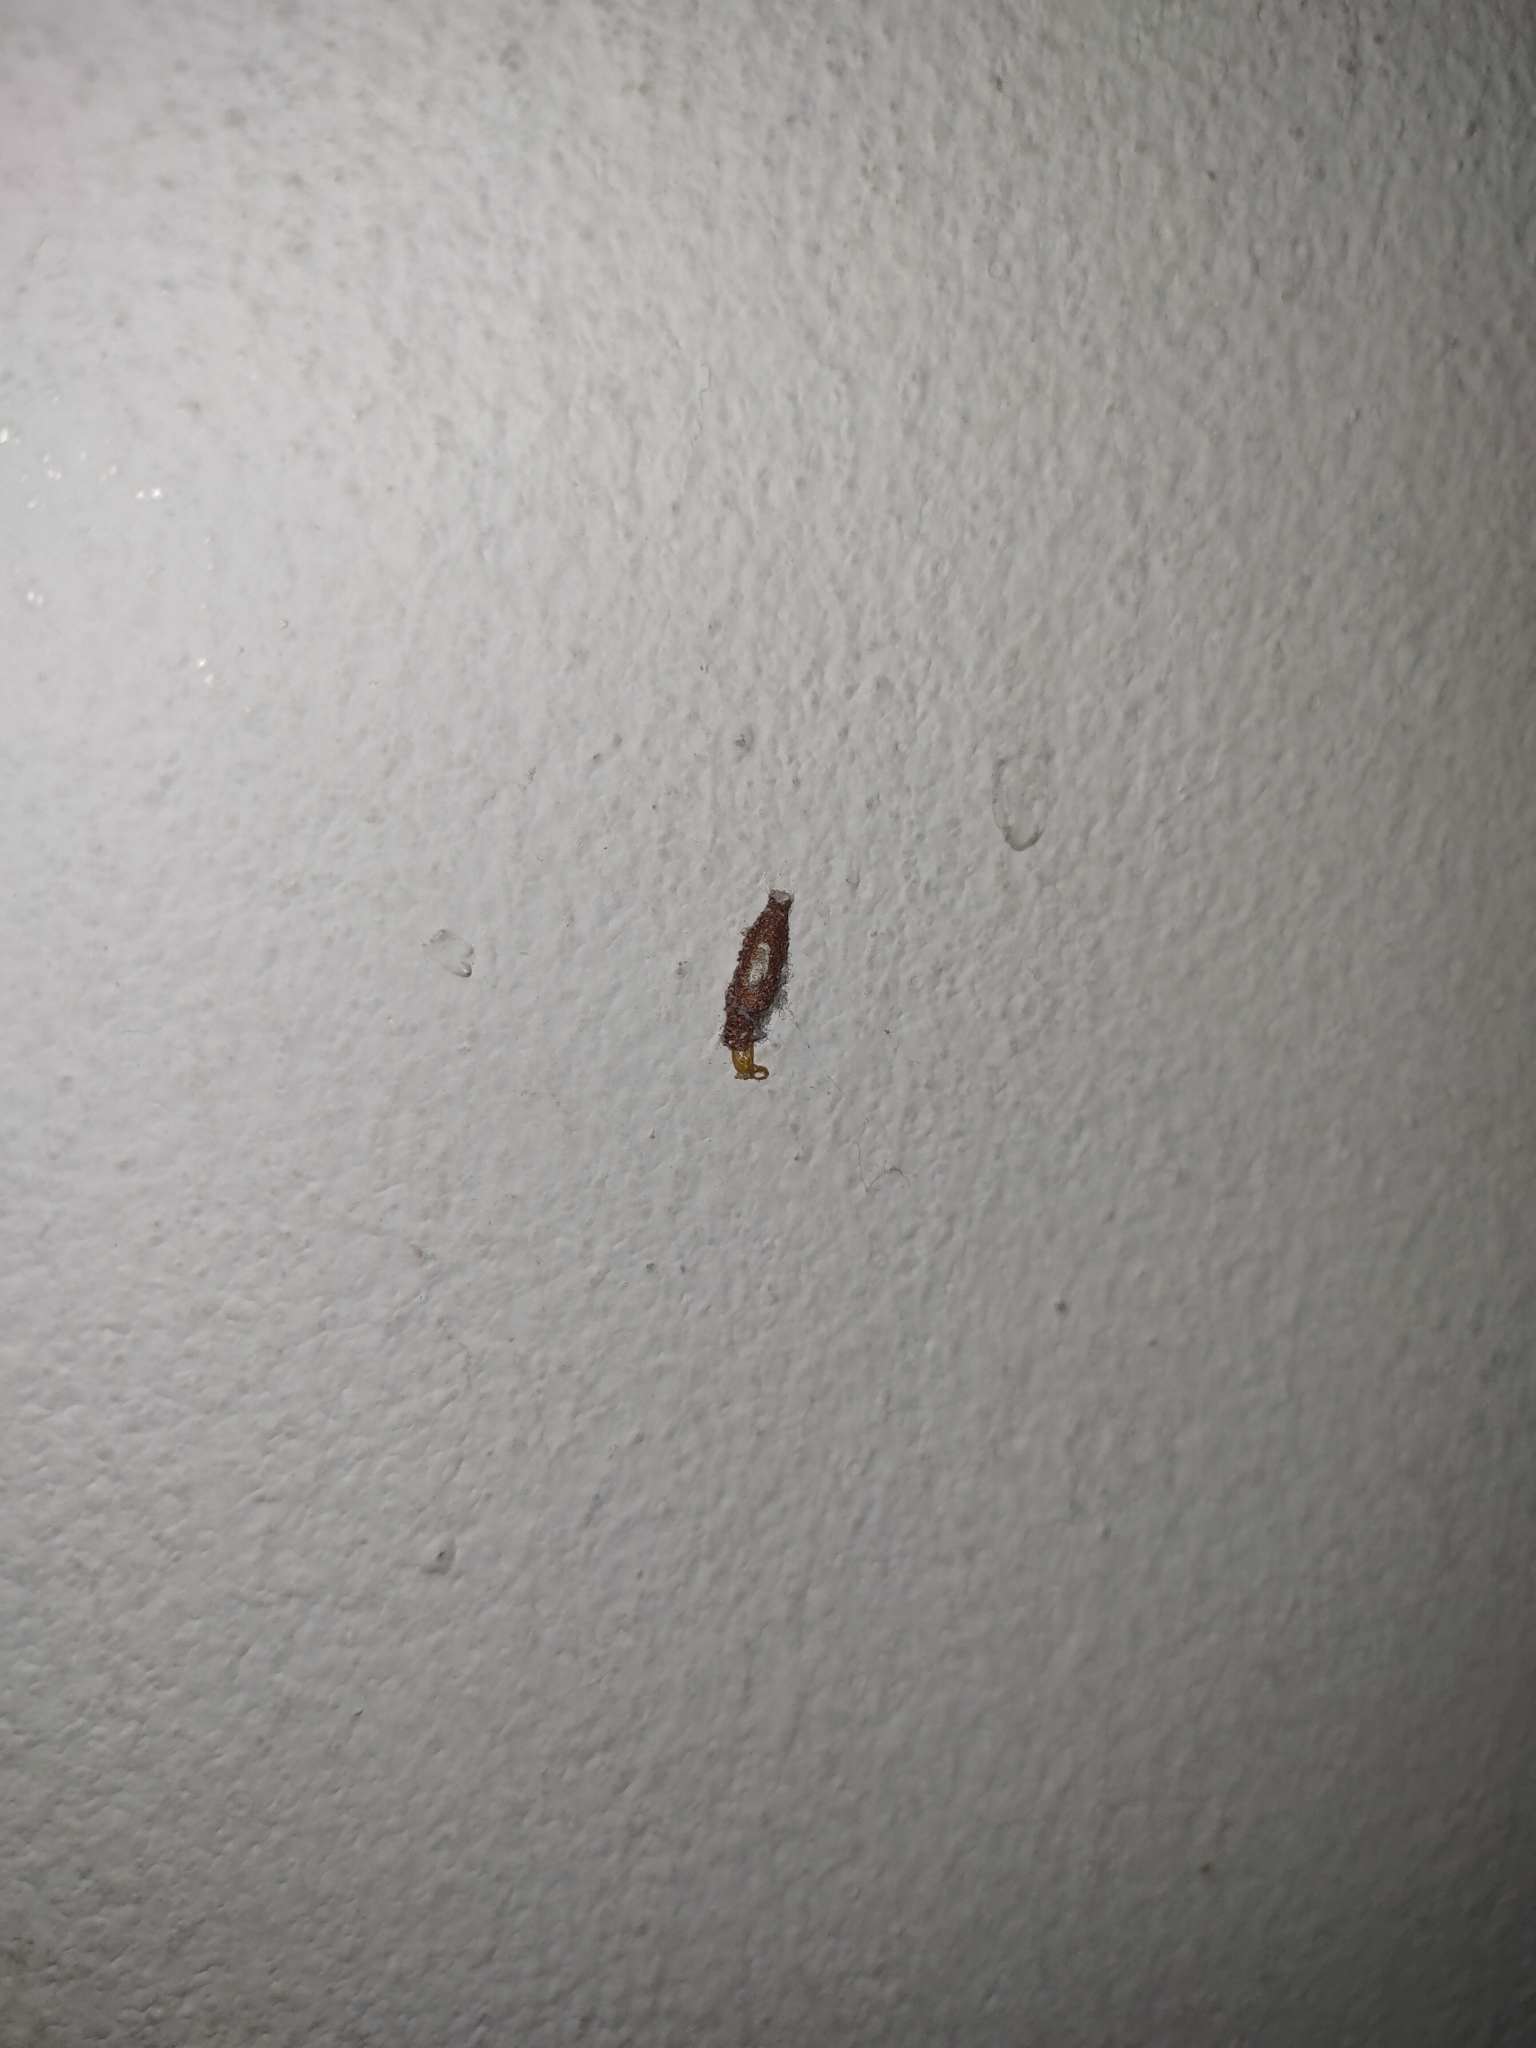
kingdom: Animalia
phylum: Arthropoda
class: Insecta
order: Lepidoptera
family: Tineidae
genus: Phereoeca
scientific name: Phereoeca uterella
